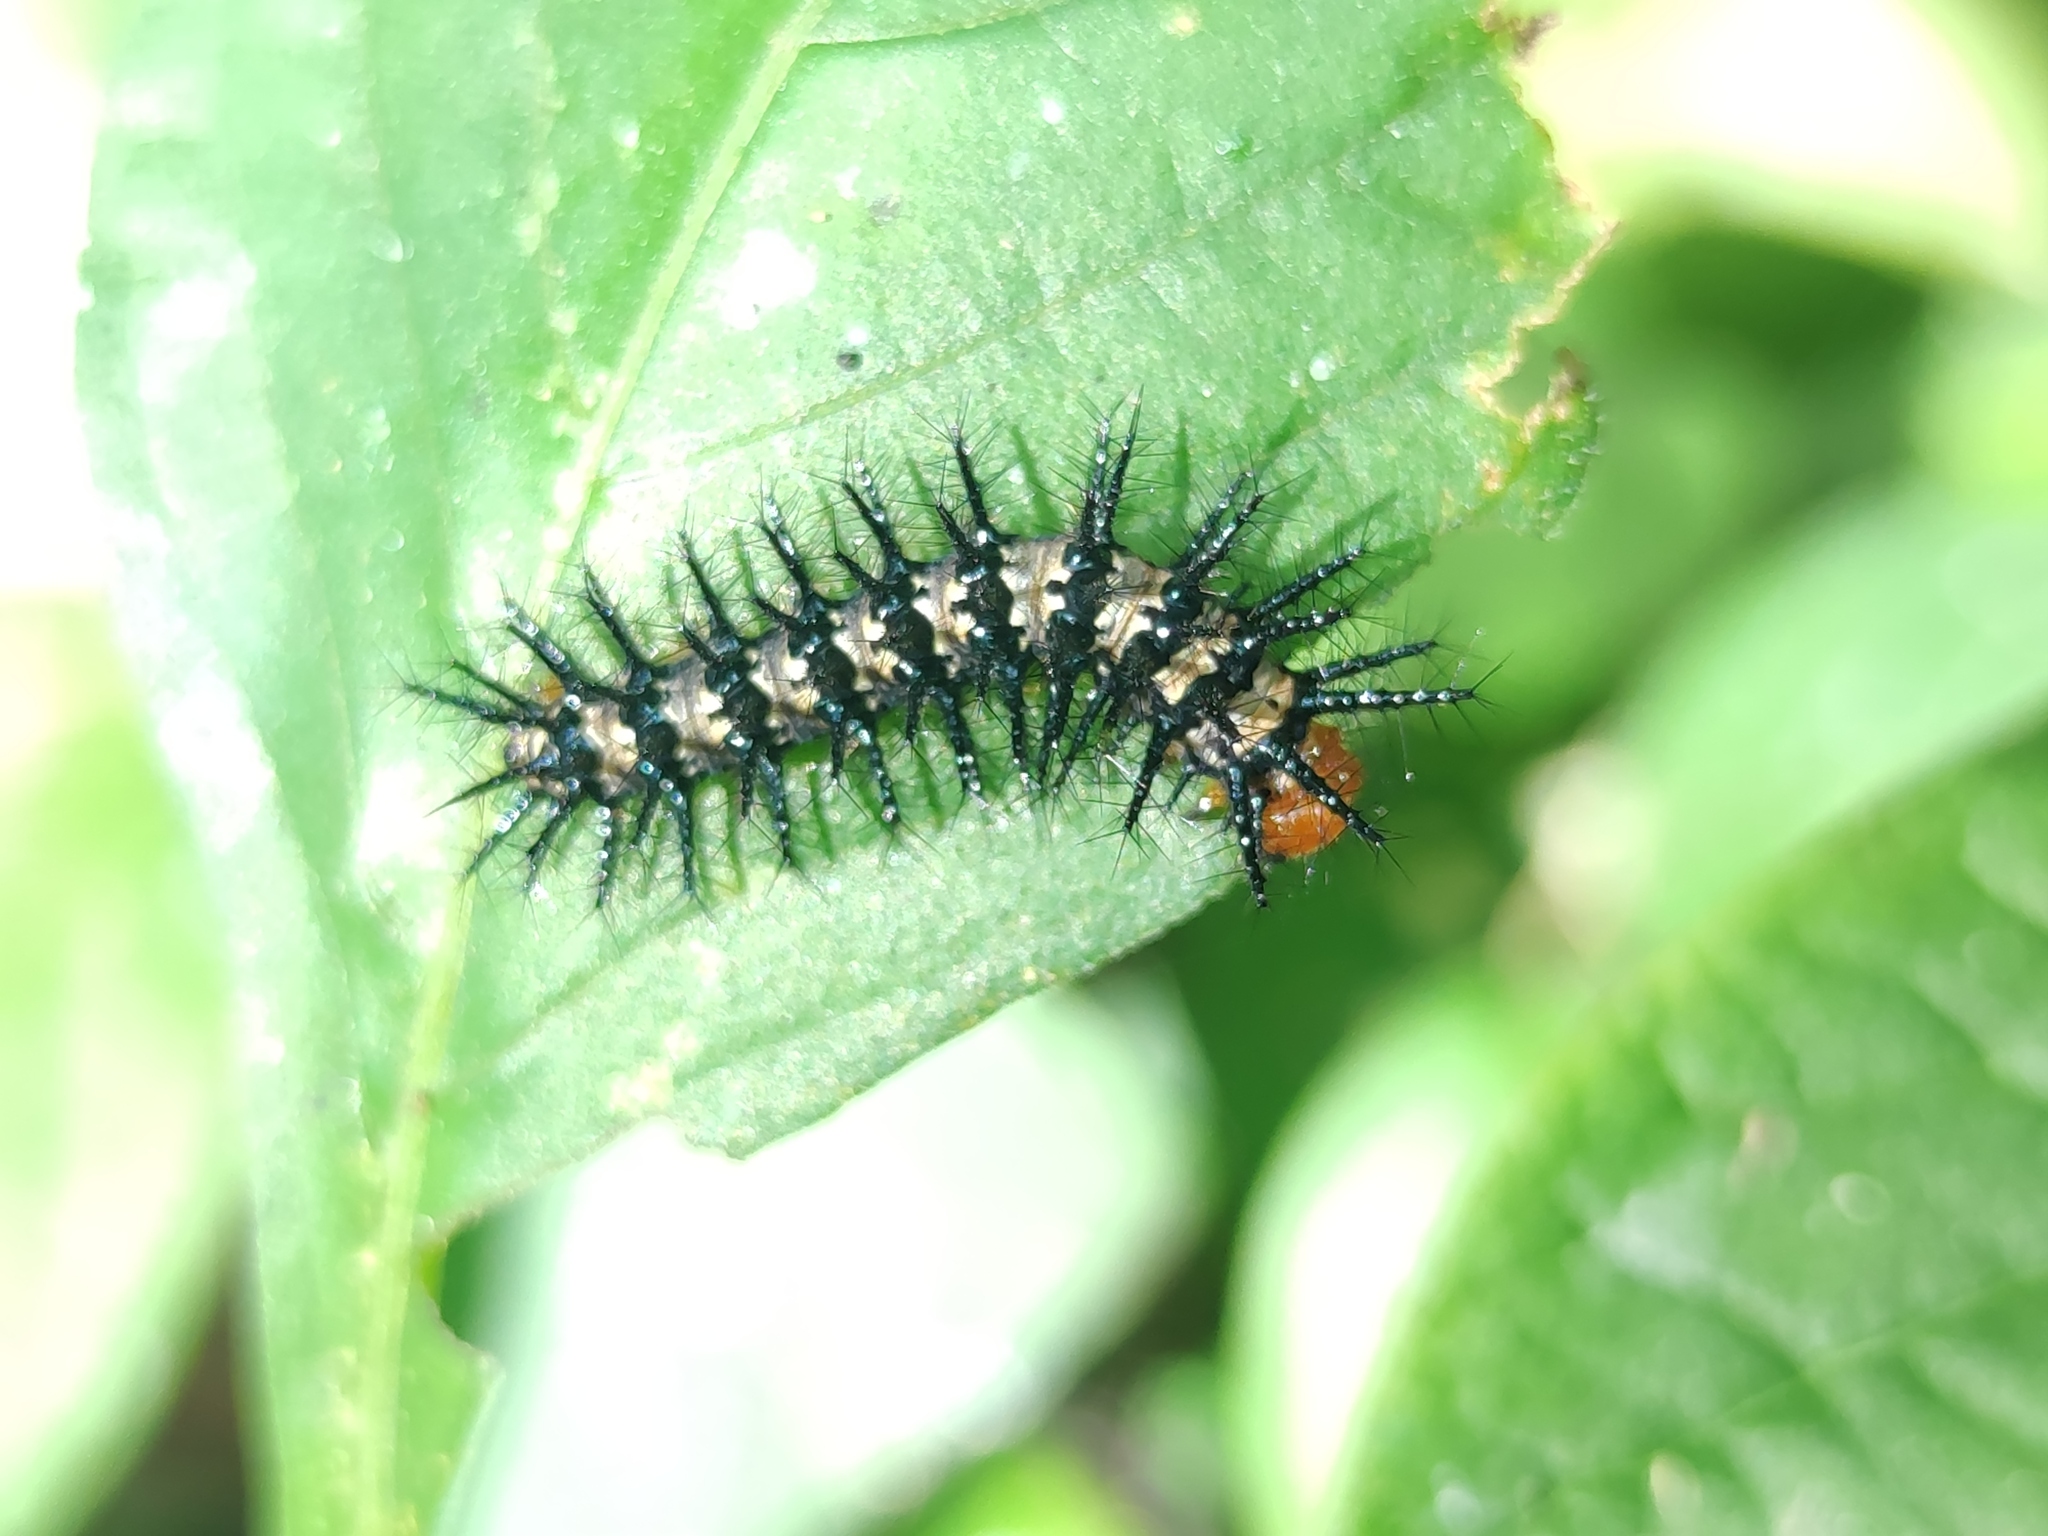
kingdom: Animalia
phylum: Arthropoda
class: Insecta
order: Lepidoptera
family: Nymphalidae
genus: Chlosyne
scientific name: Chlosyne janais
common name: Crimson patch
